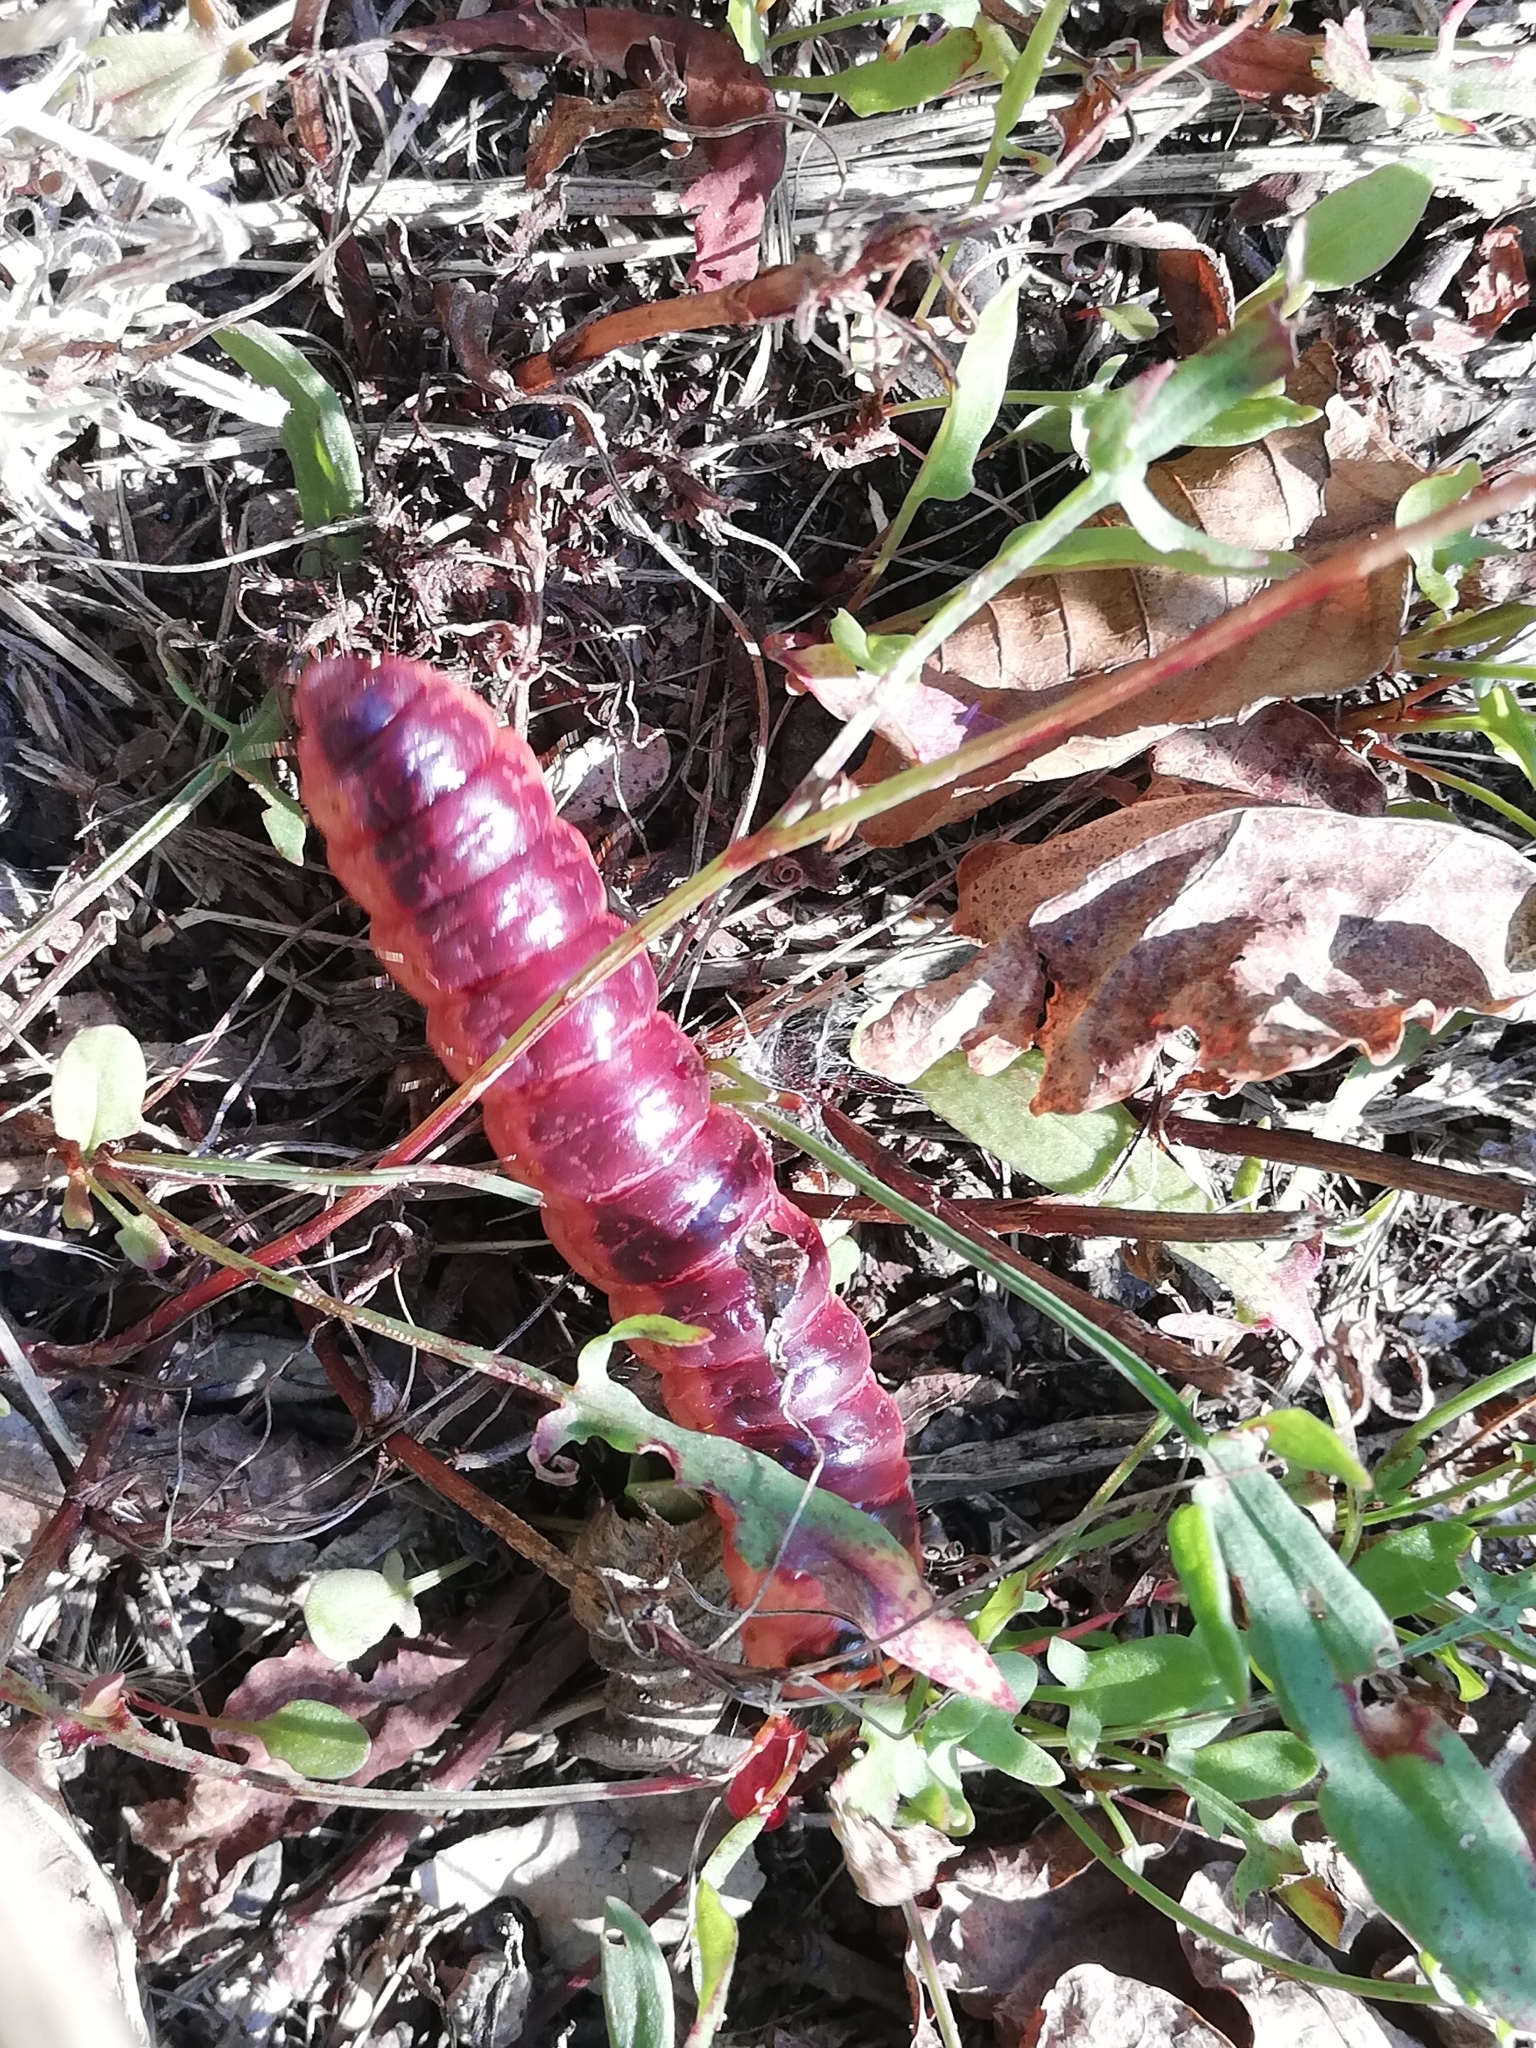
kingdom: Animalia
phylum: Arthropoda
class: Insecta
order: Lepidoptera
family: Cossidae
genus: Cossus
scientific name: Cossus cossus
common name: Goat moth
